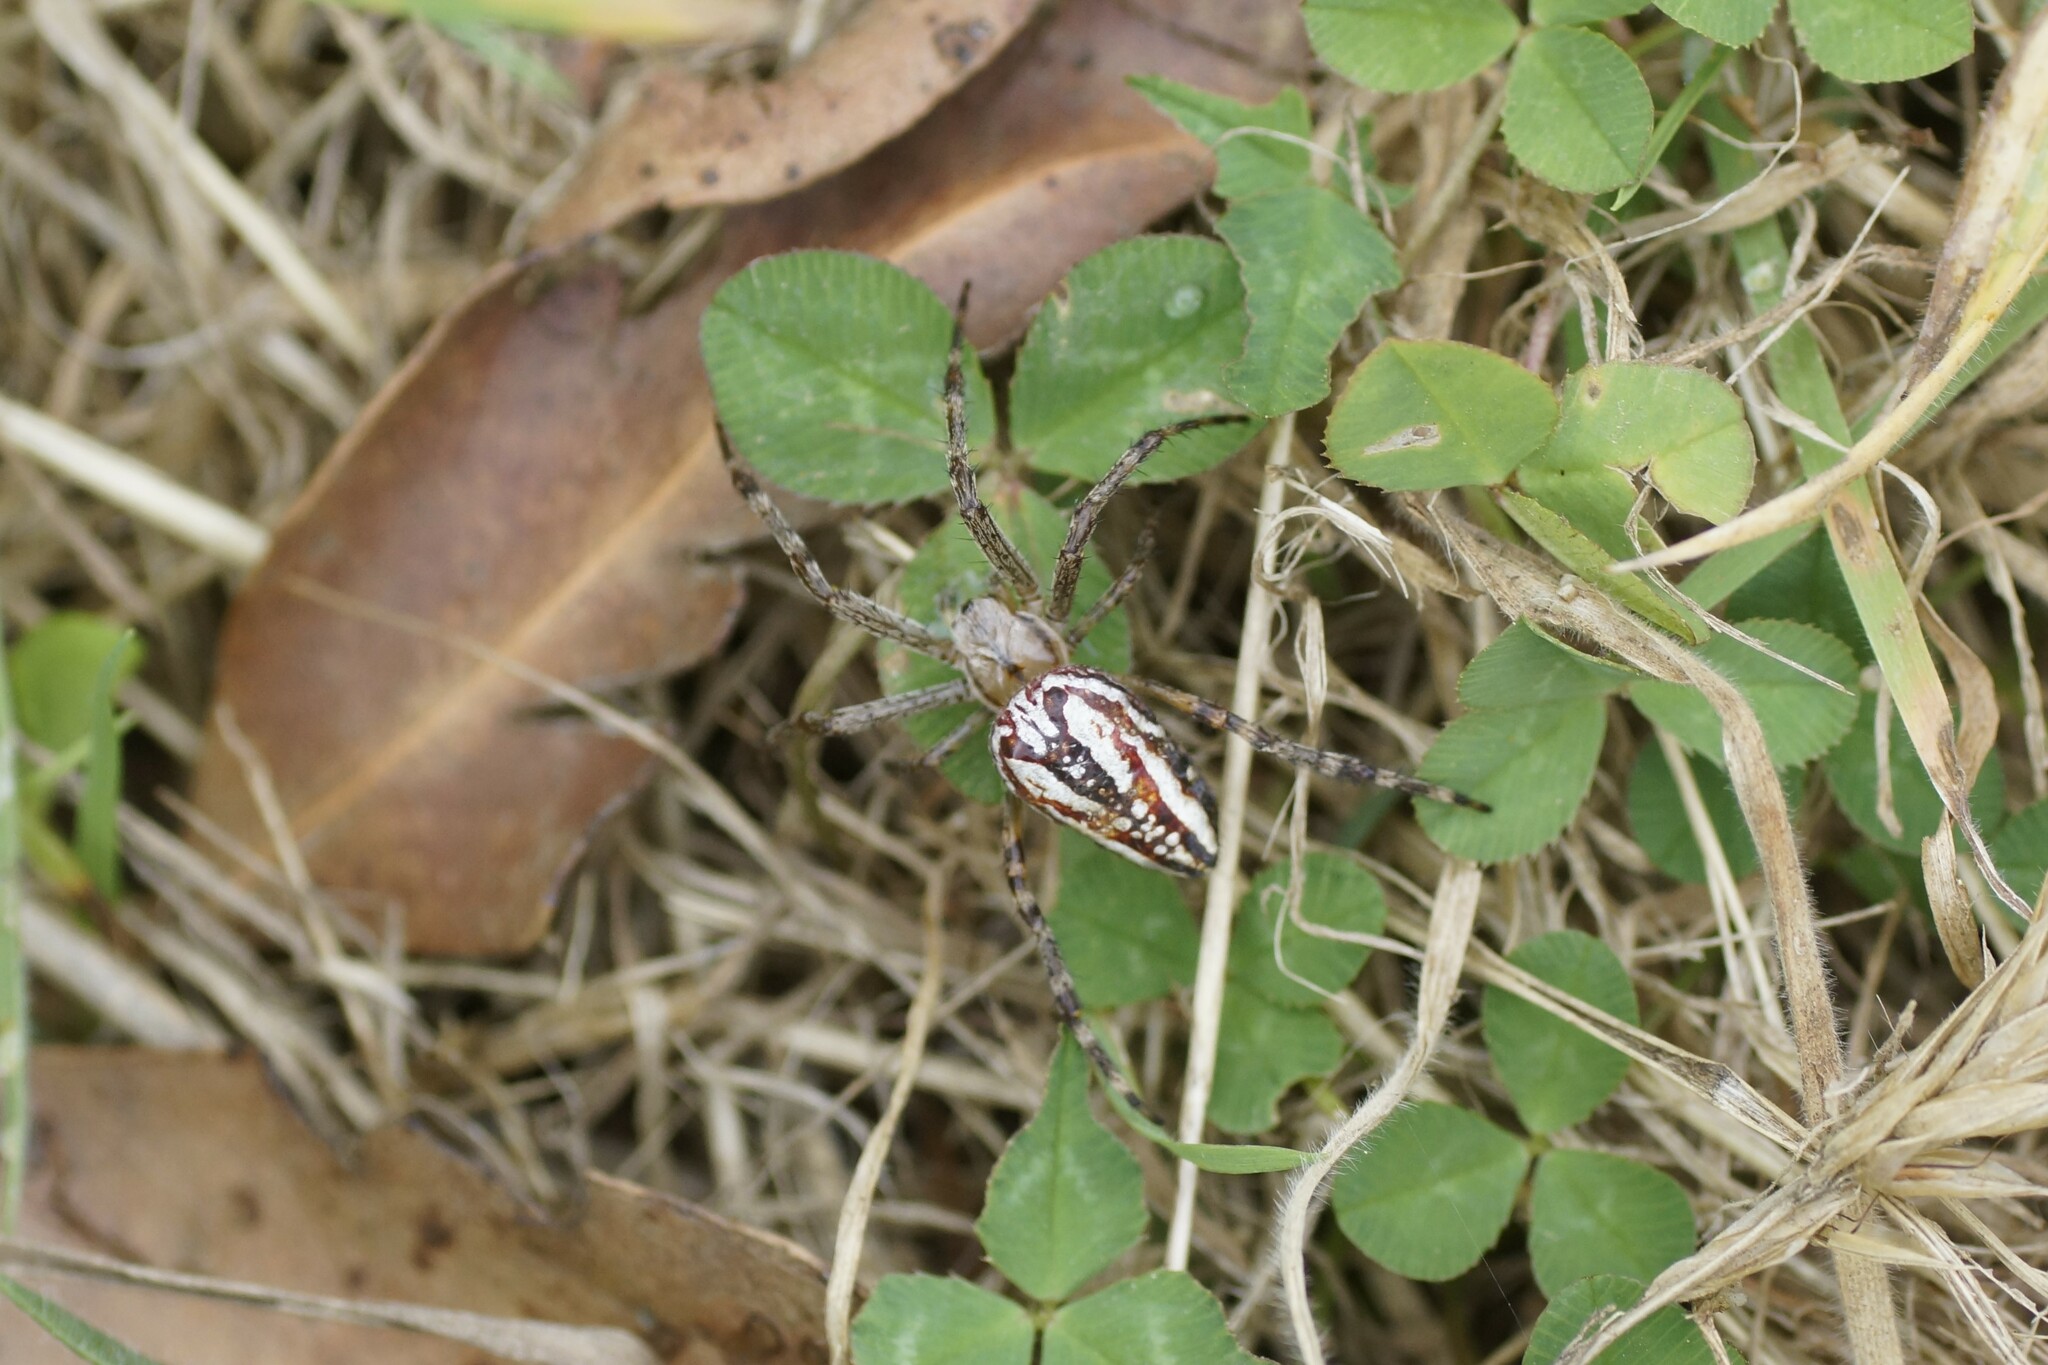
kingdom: Animalia
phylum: Arthropoda
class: Arachnida
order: Araneae
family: Araneidae
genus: Plebs
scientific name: Plebs bradleyi
